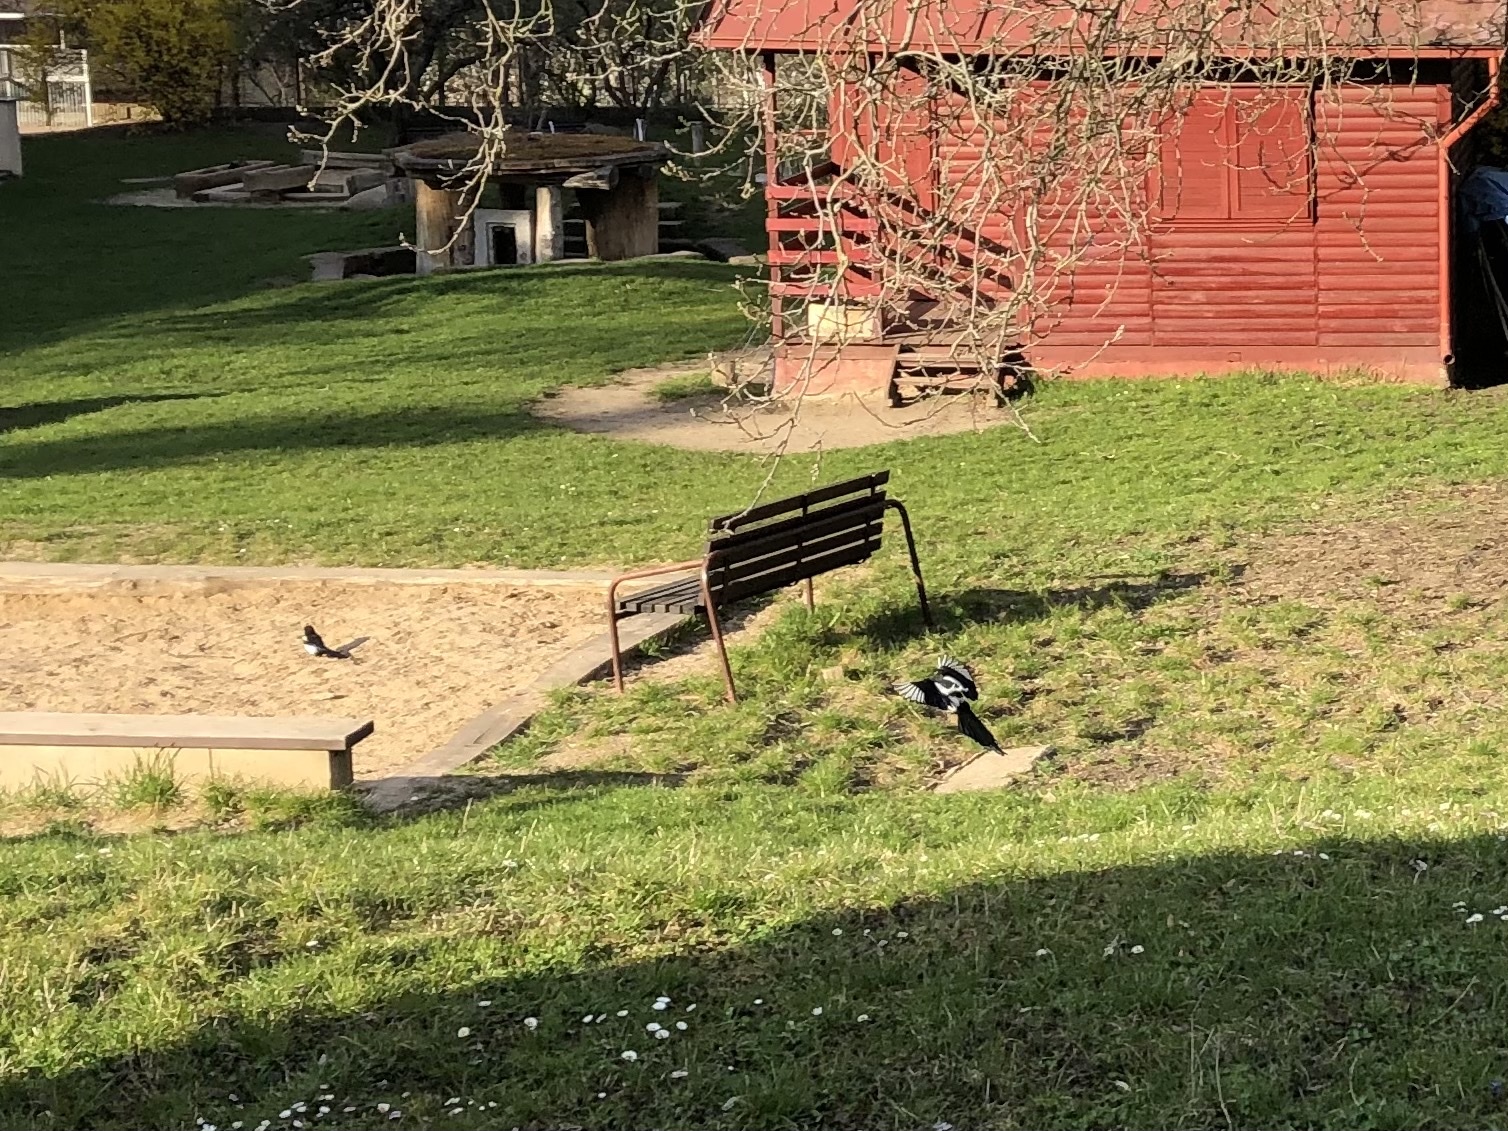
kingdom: Animalia
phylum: Chordata
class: Aves
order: Passeriformes
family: Corvidae
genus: Pica
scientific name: Pica pica
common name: Eurasian magpie
